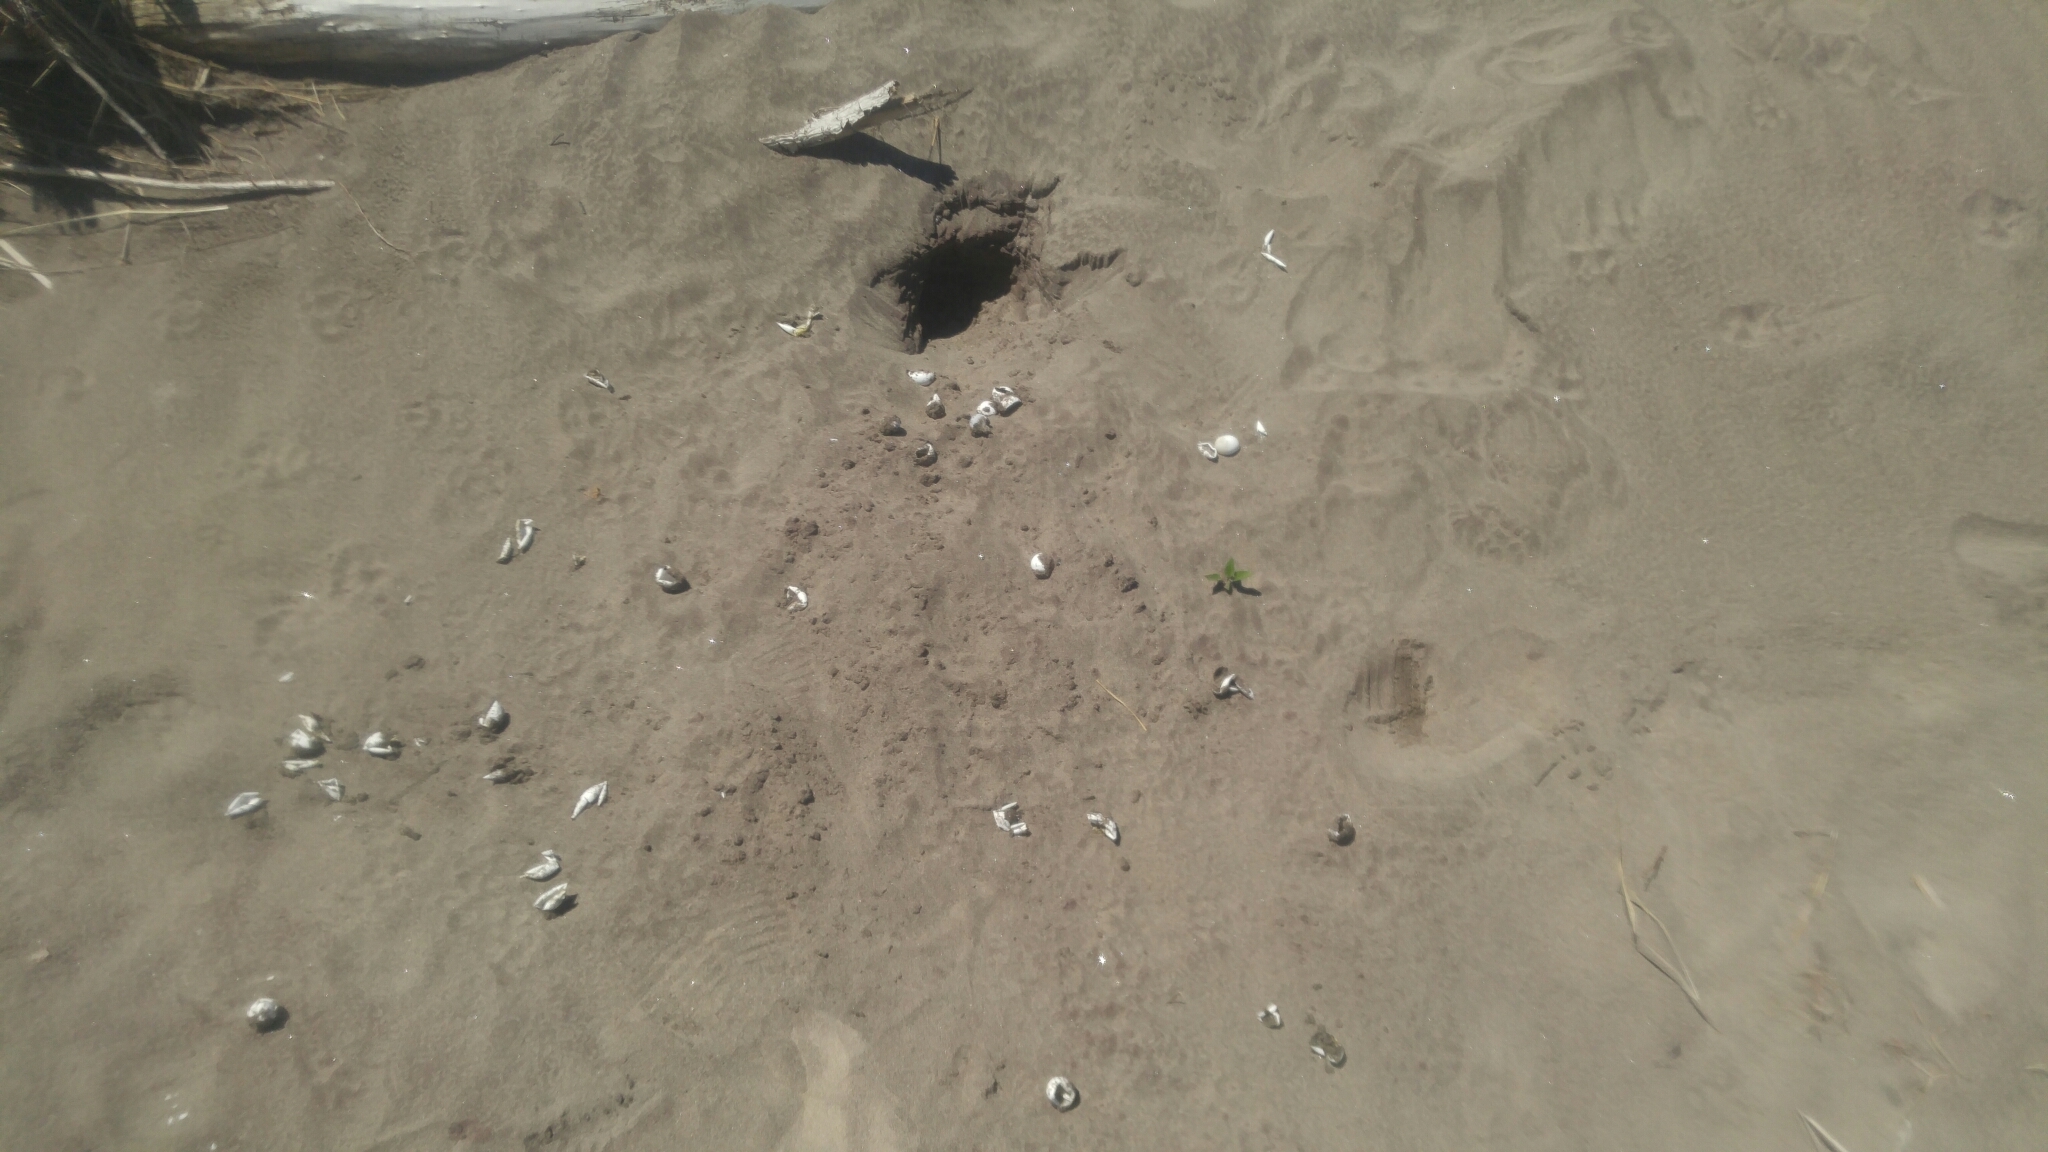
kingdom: Animalia
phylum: Chordata
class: Testudines
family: Chelydridae
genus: Chelydra
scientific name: Chelydra serpentina
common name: Common snapping turtle
